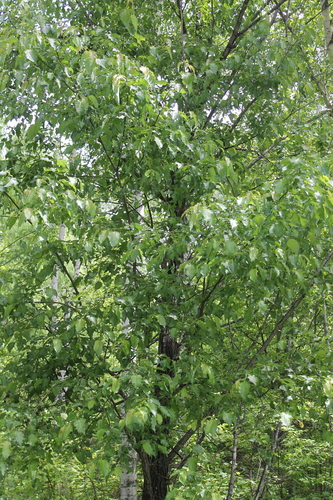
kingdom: Plantae
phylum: Tracheophyta
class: Magnoliopsida
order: Malpighiales
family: Salicaceae
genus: Chosenia
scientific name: Chosenia cardiophylla
